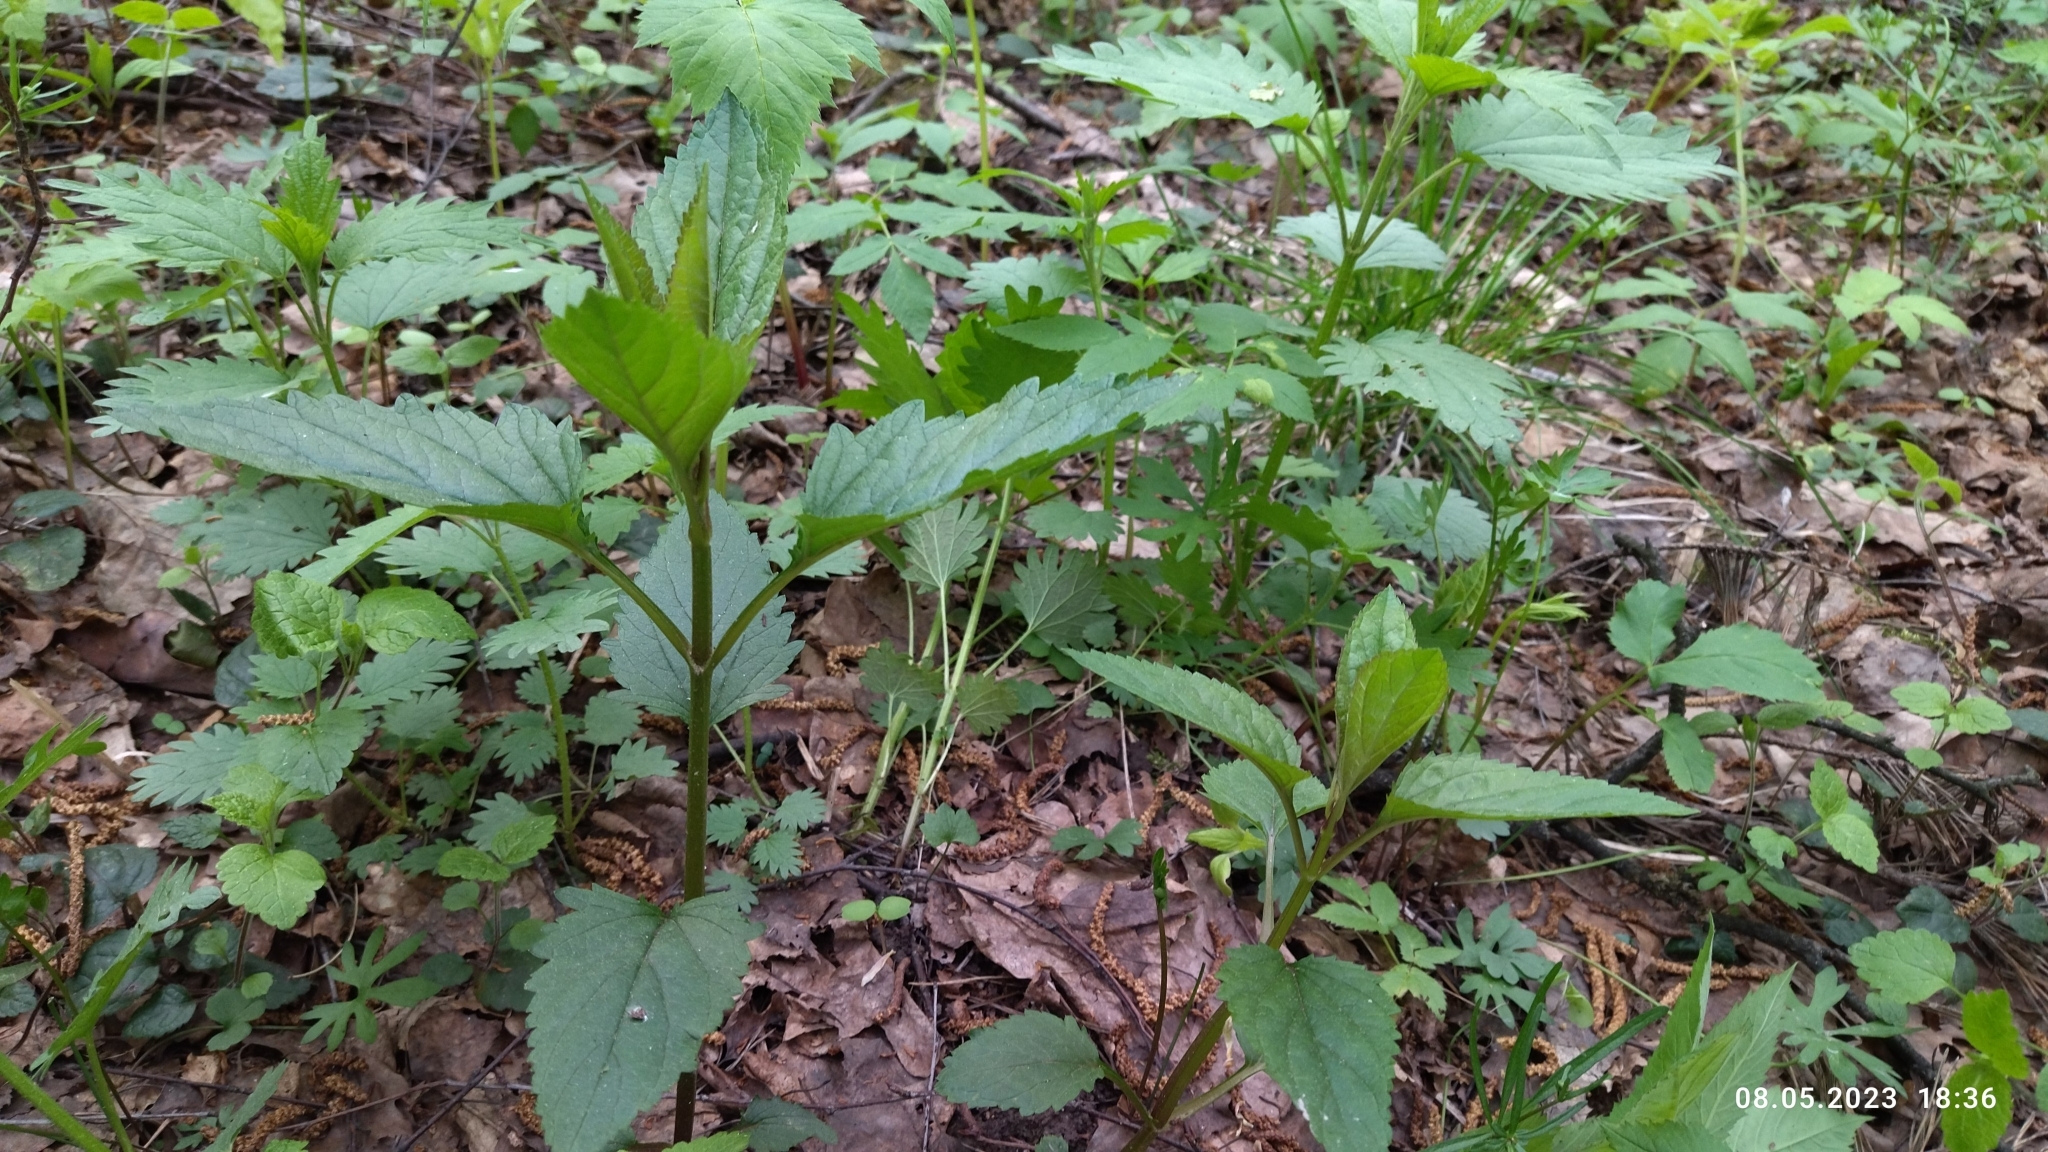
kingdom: Plantae
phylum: Tracheophyta
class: Magnoliopsida
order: Lamiales
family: Scrophulariaceae
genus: Scrophularia
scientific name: Scrophularia nodosa
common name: Common figwort
